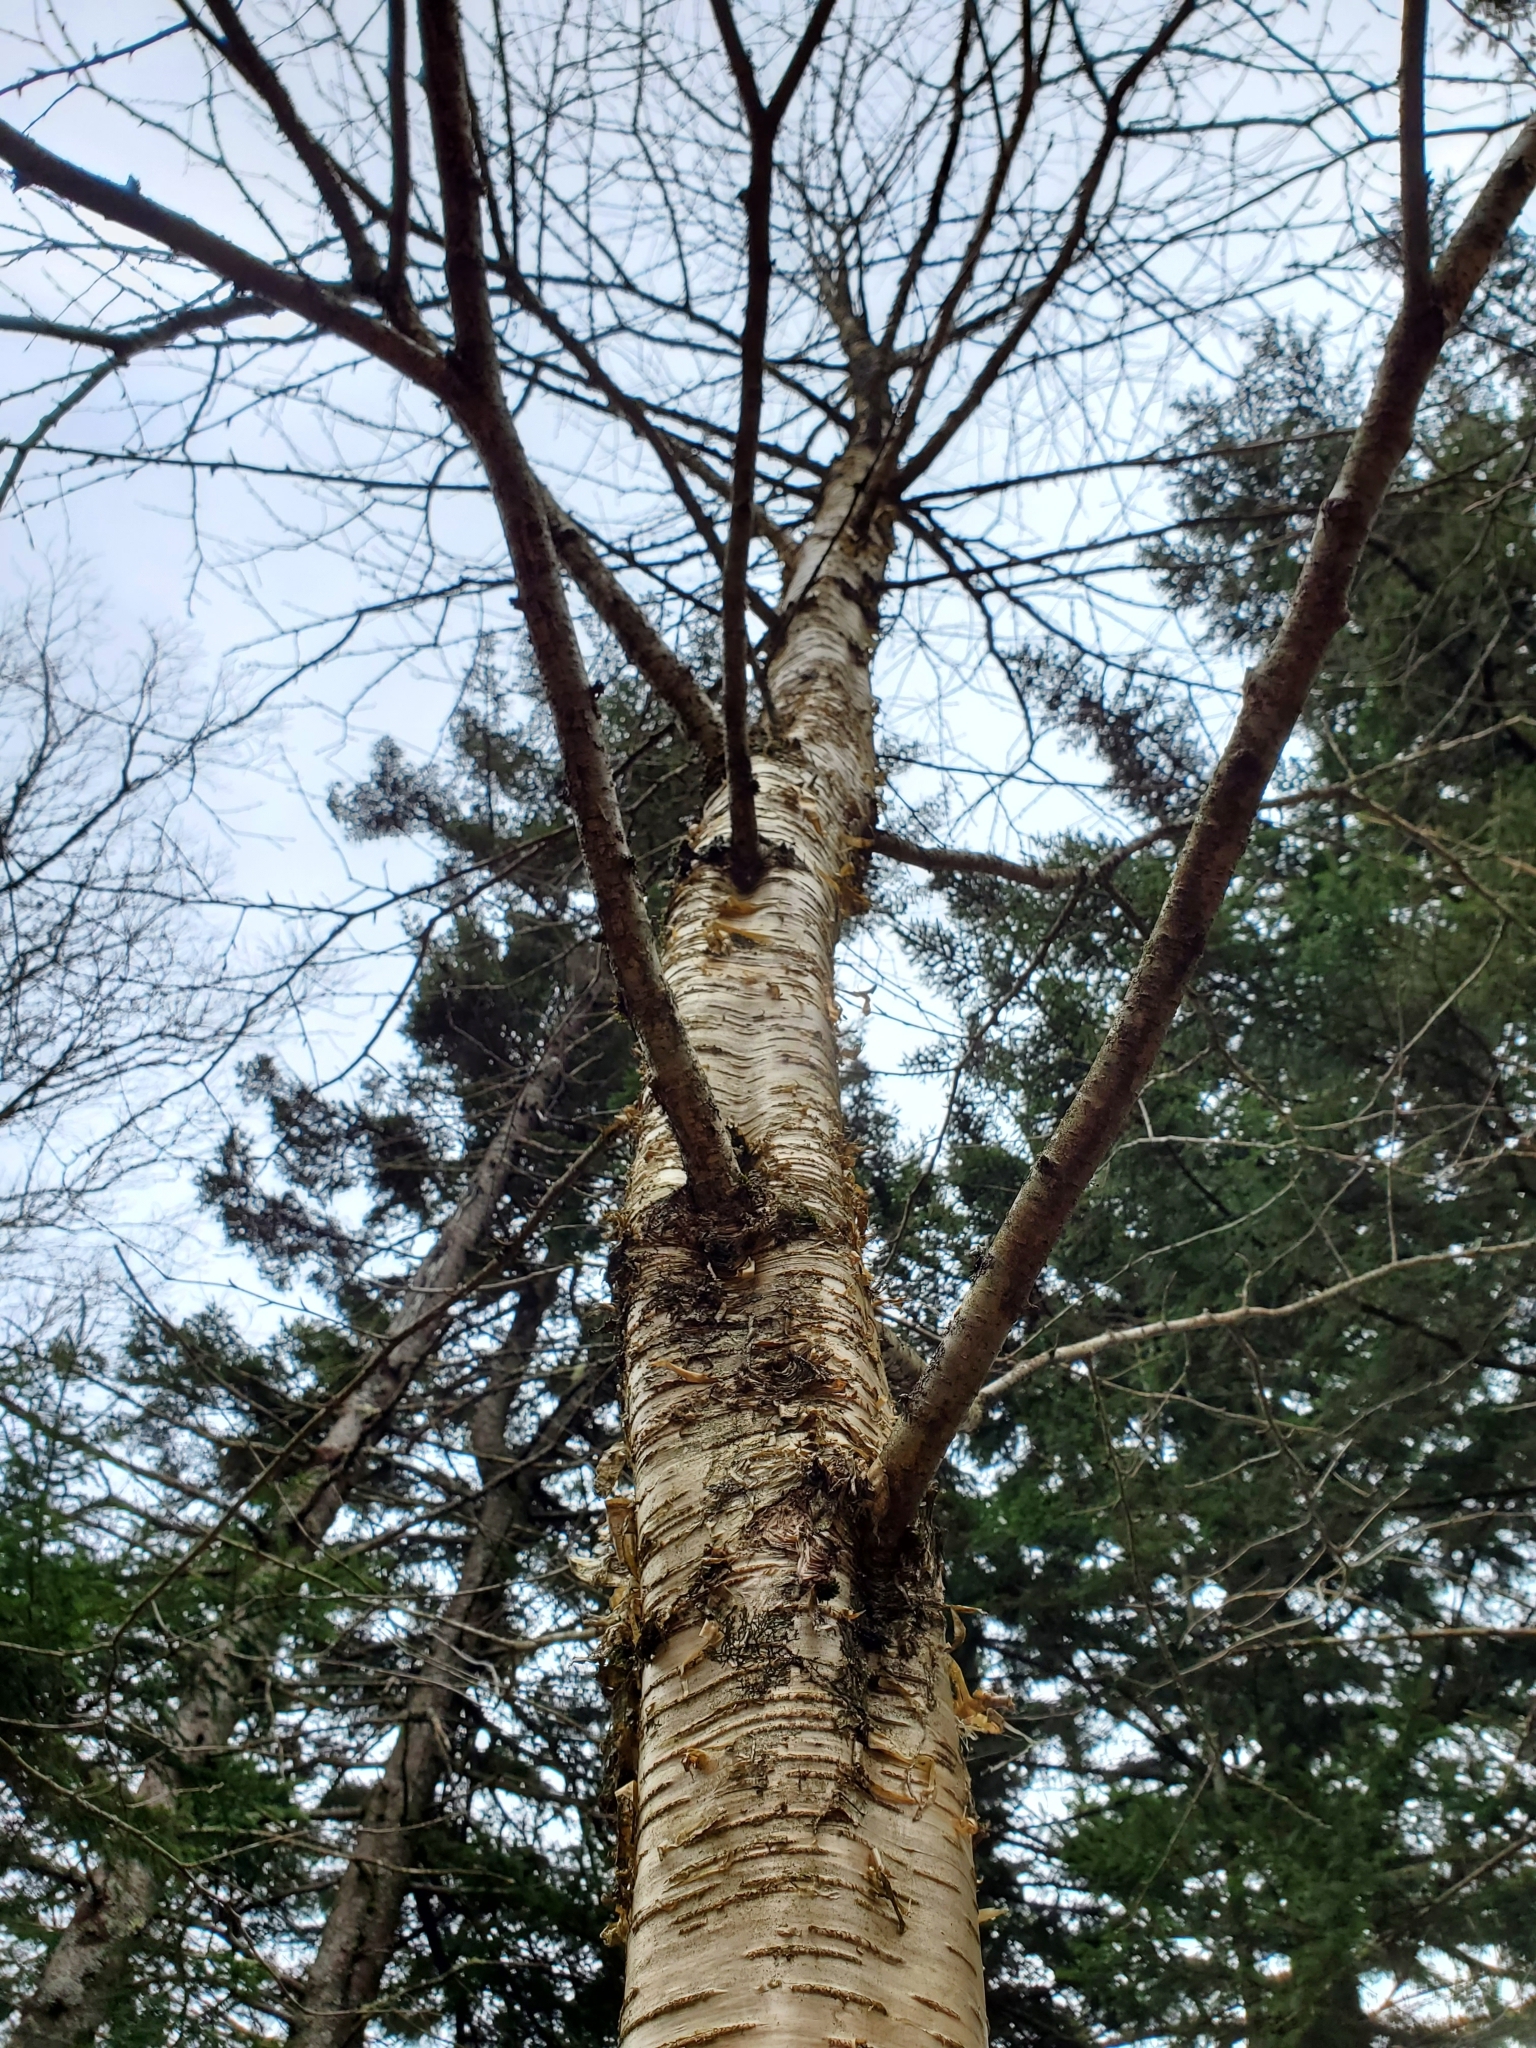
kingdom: Plantae
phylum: Tracheophyta
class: Magnoliopsida
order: Fagales
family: Betulaceae
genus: Betula
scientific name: Betula alleghaniensis
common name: Yellow birch
